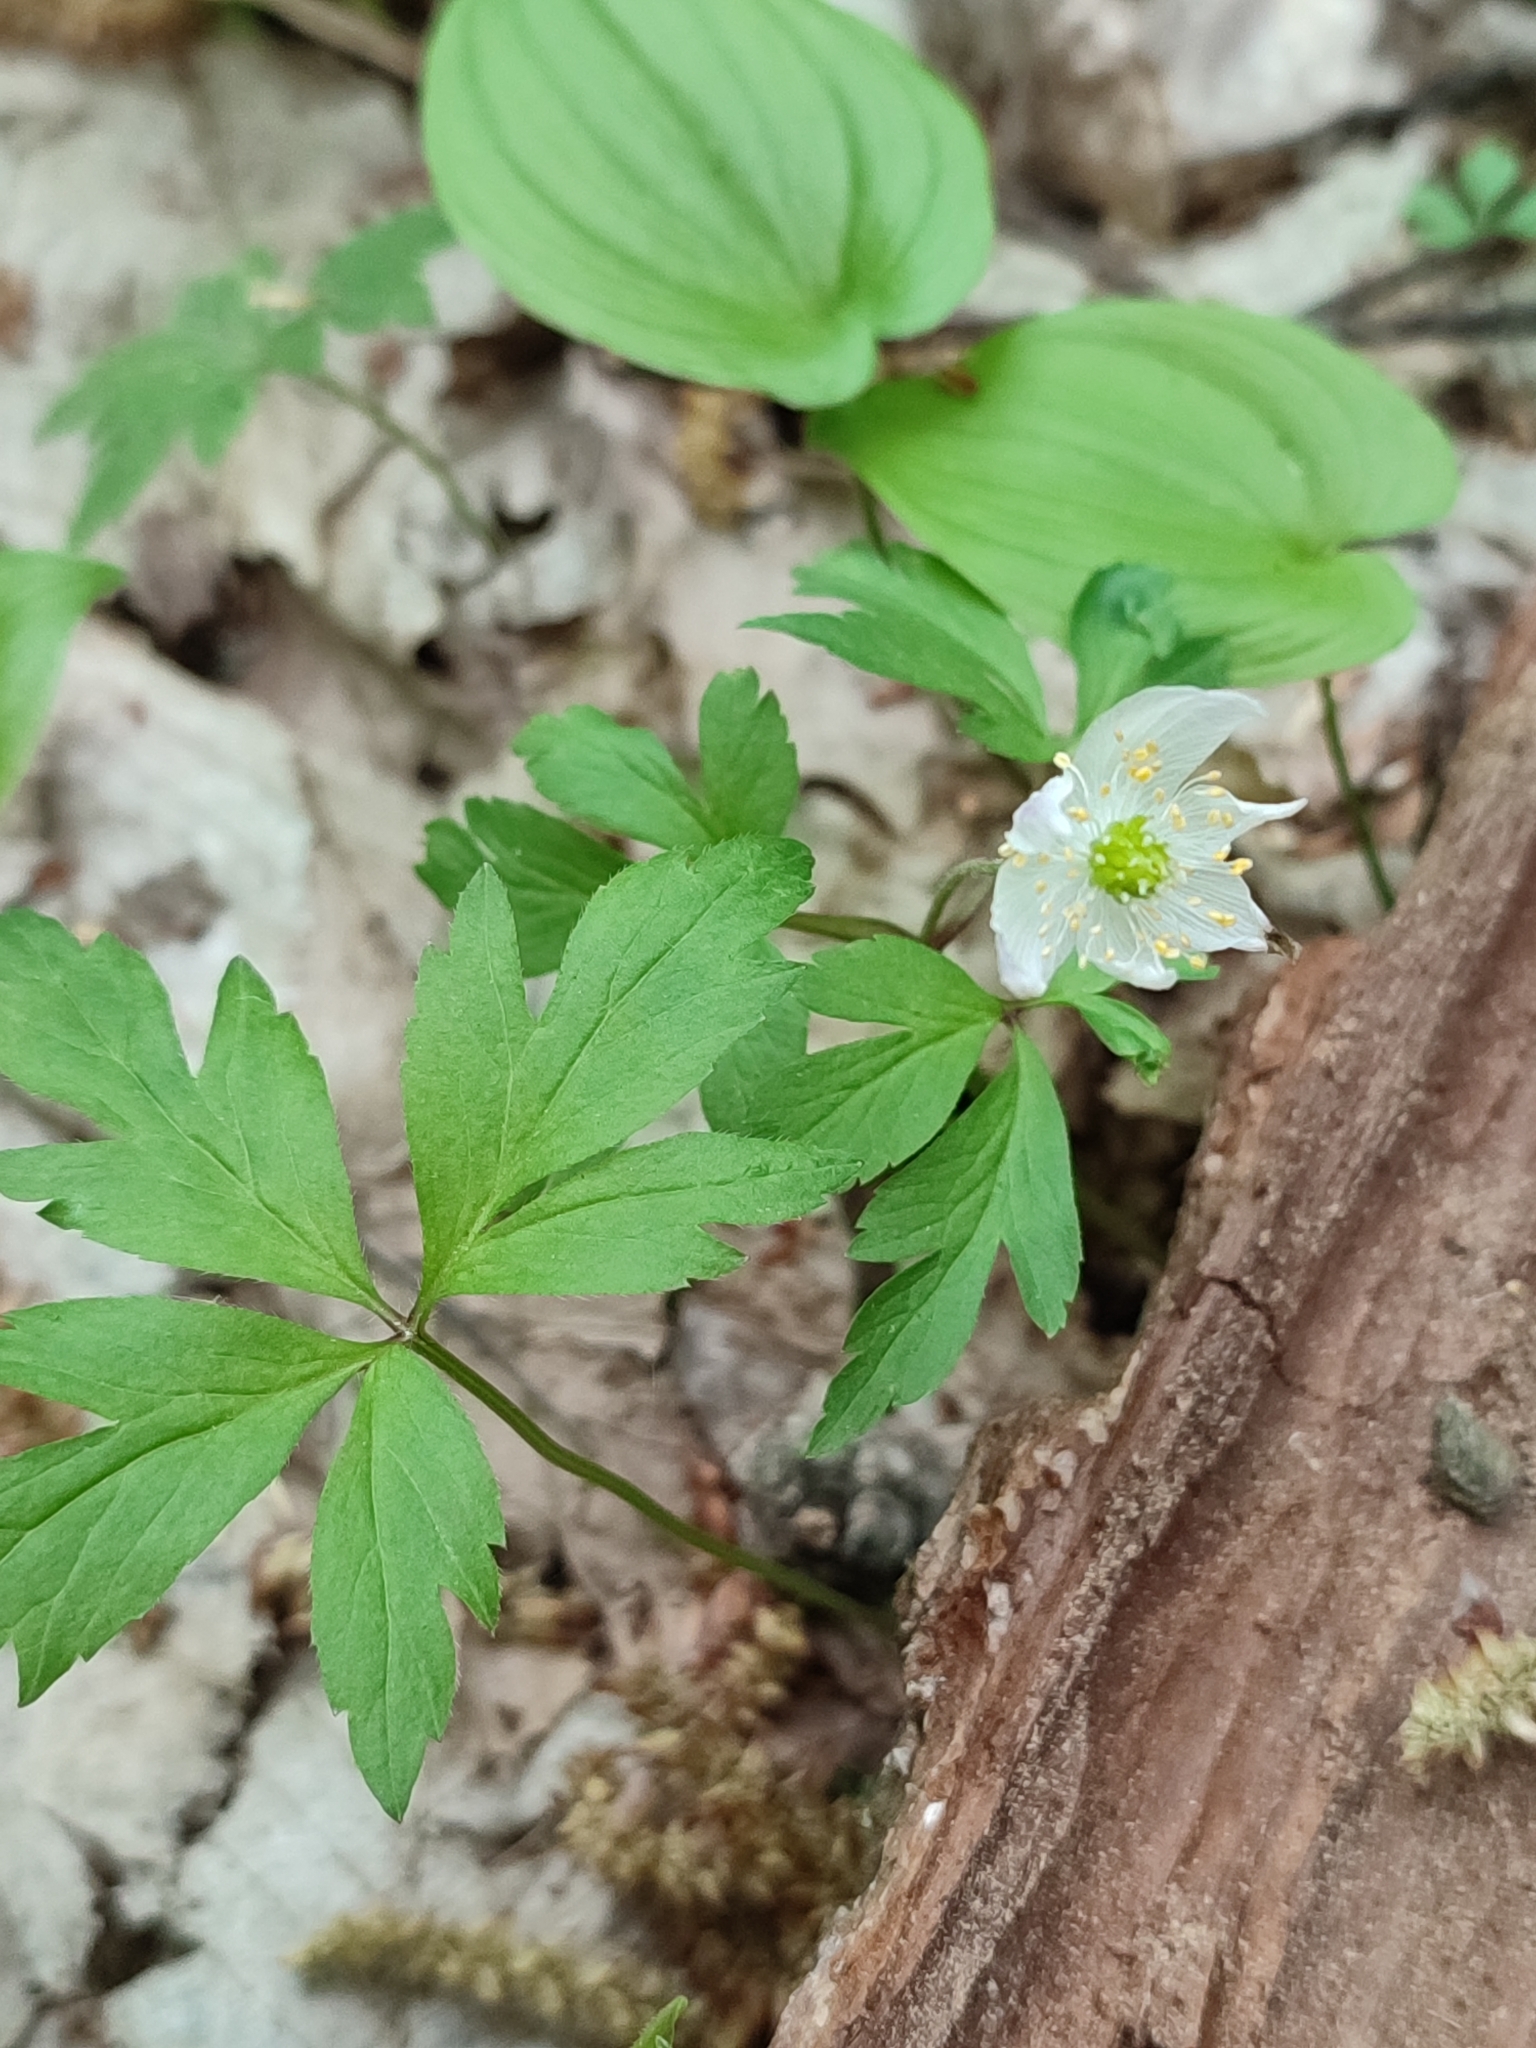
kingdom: Plantae
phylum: Tracheophyta
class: Magnoliopsida
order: Ranunculales
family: Ranunculaceae
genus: Anemone
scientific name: Anemone nemorosa
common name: Wood anemone
